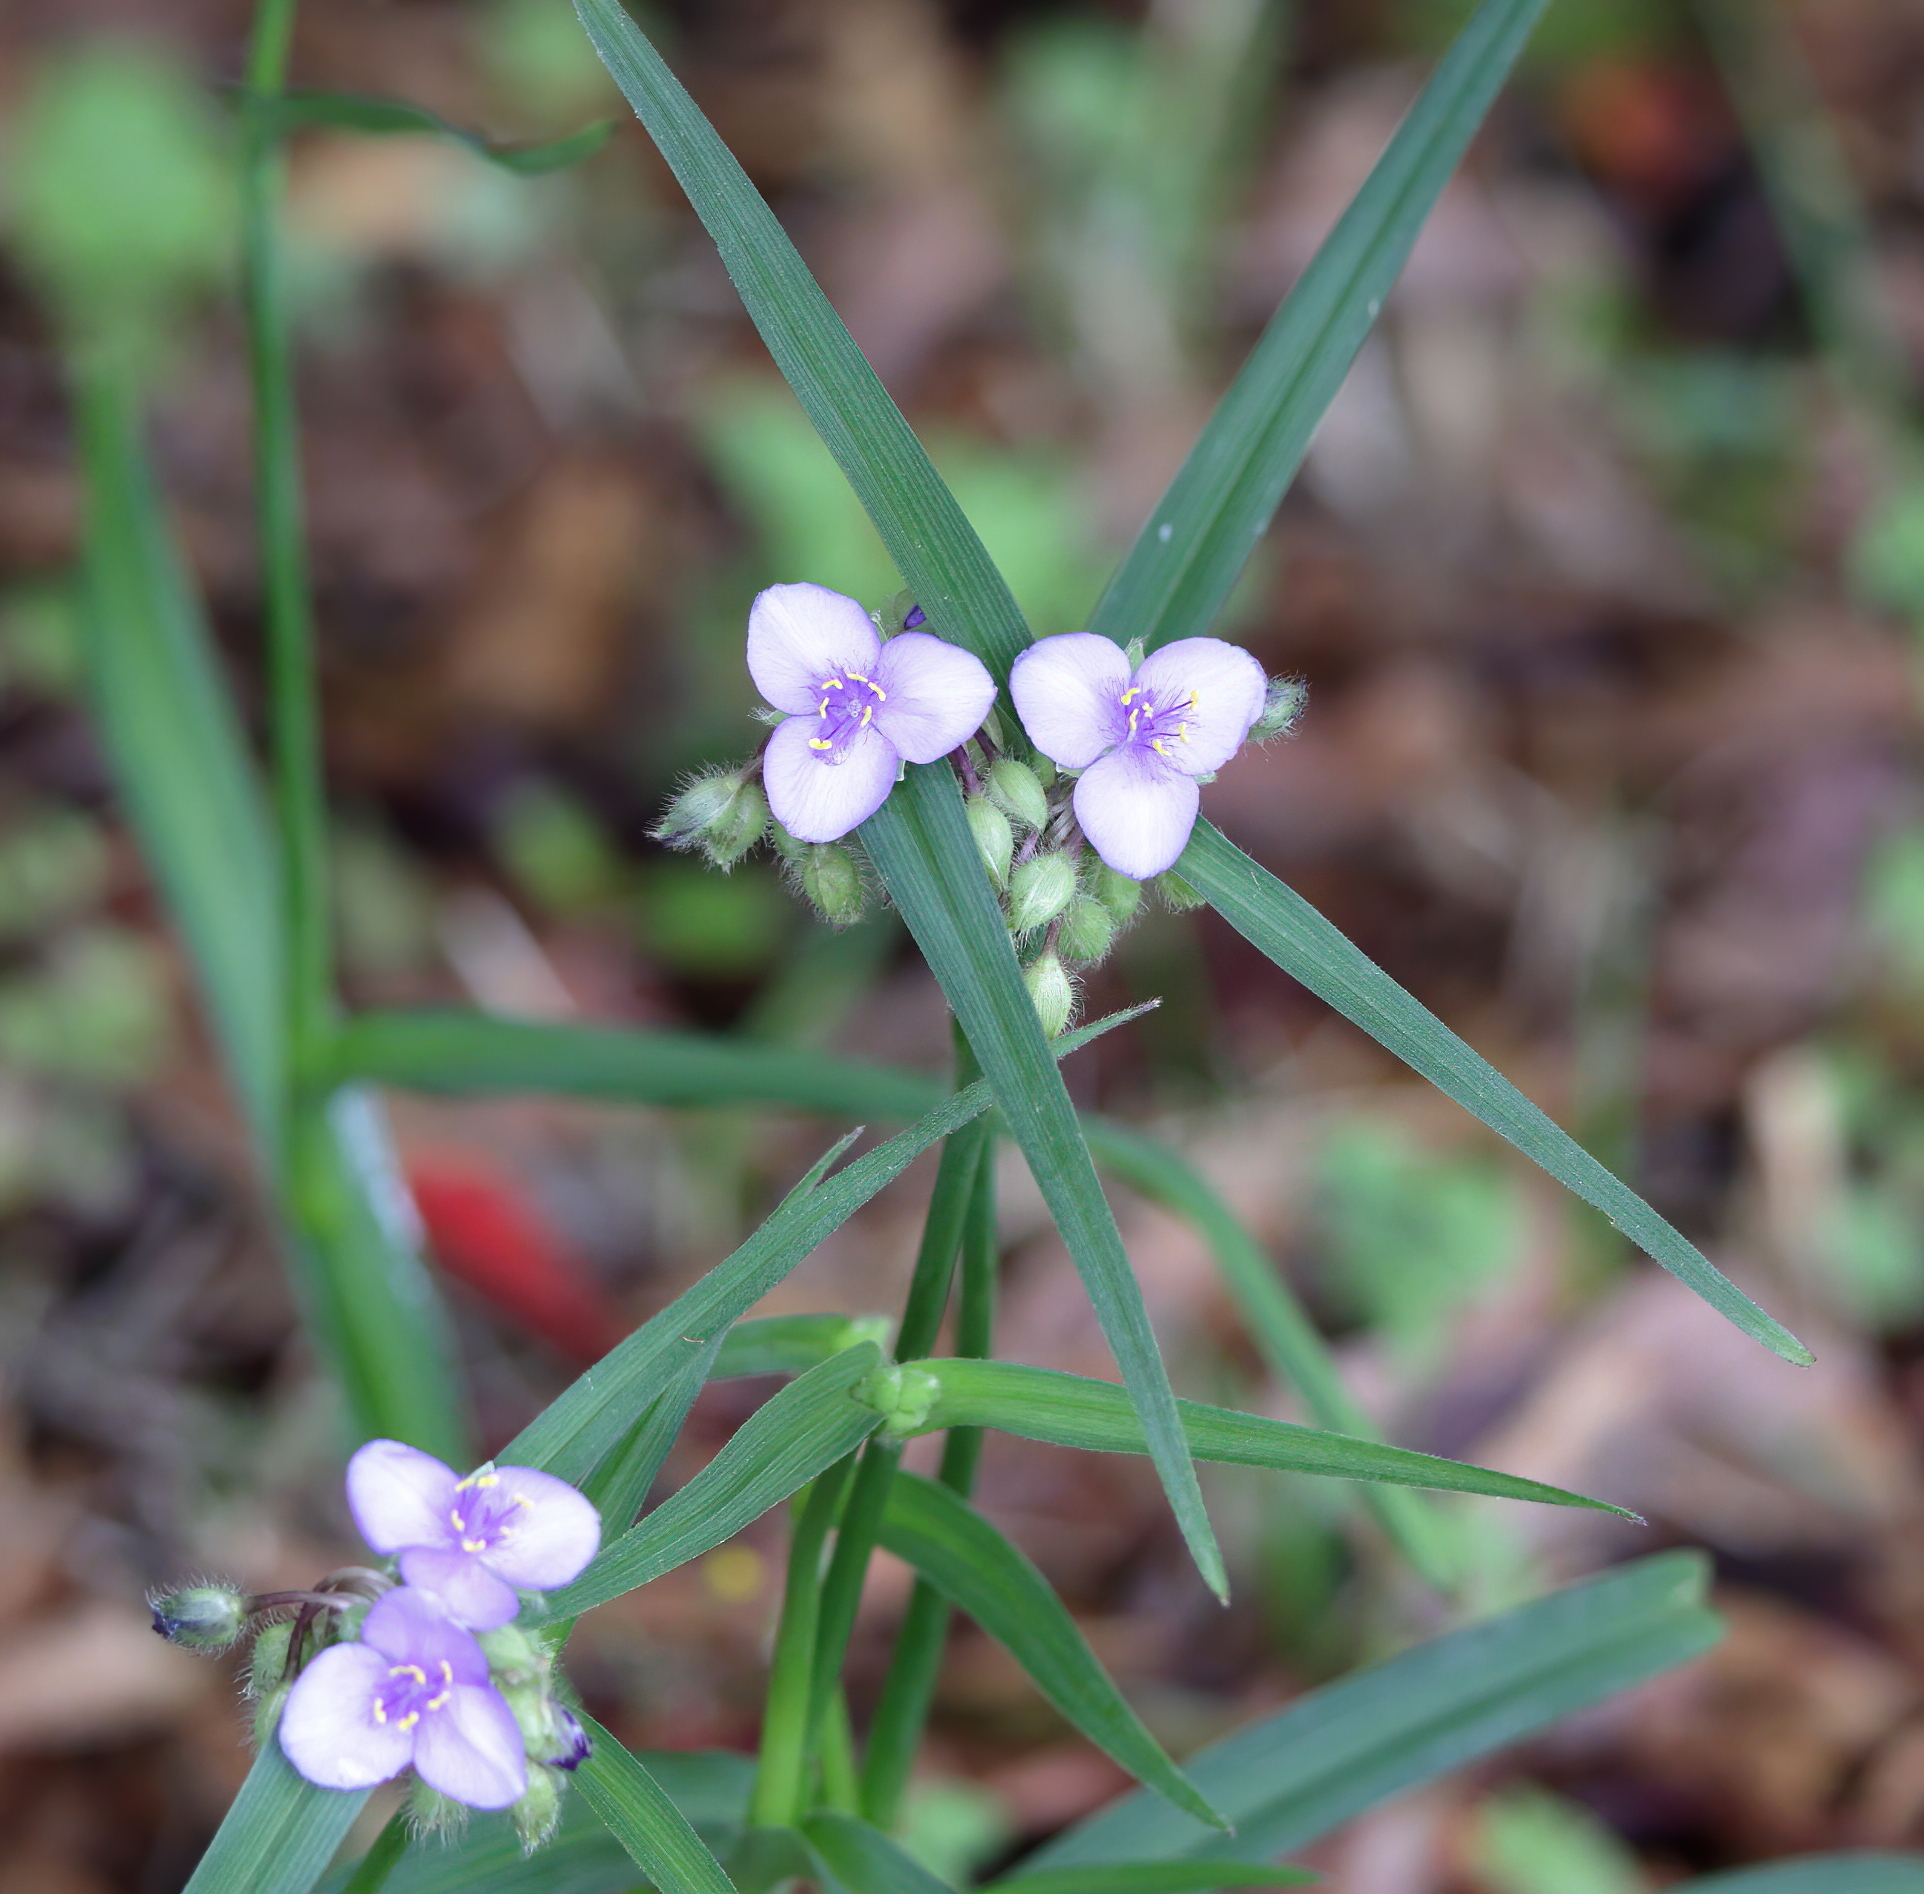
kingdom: Plantae
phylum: Tracheophyta
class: Liliopsida
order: Commelinales
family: Commelinaceae
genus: Tradescantia
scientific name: Tradescantia virginiana
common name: Spiderwort
